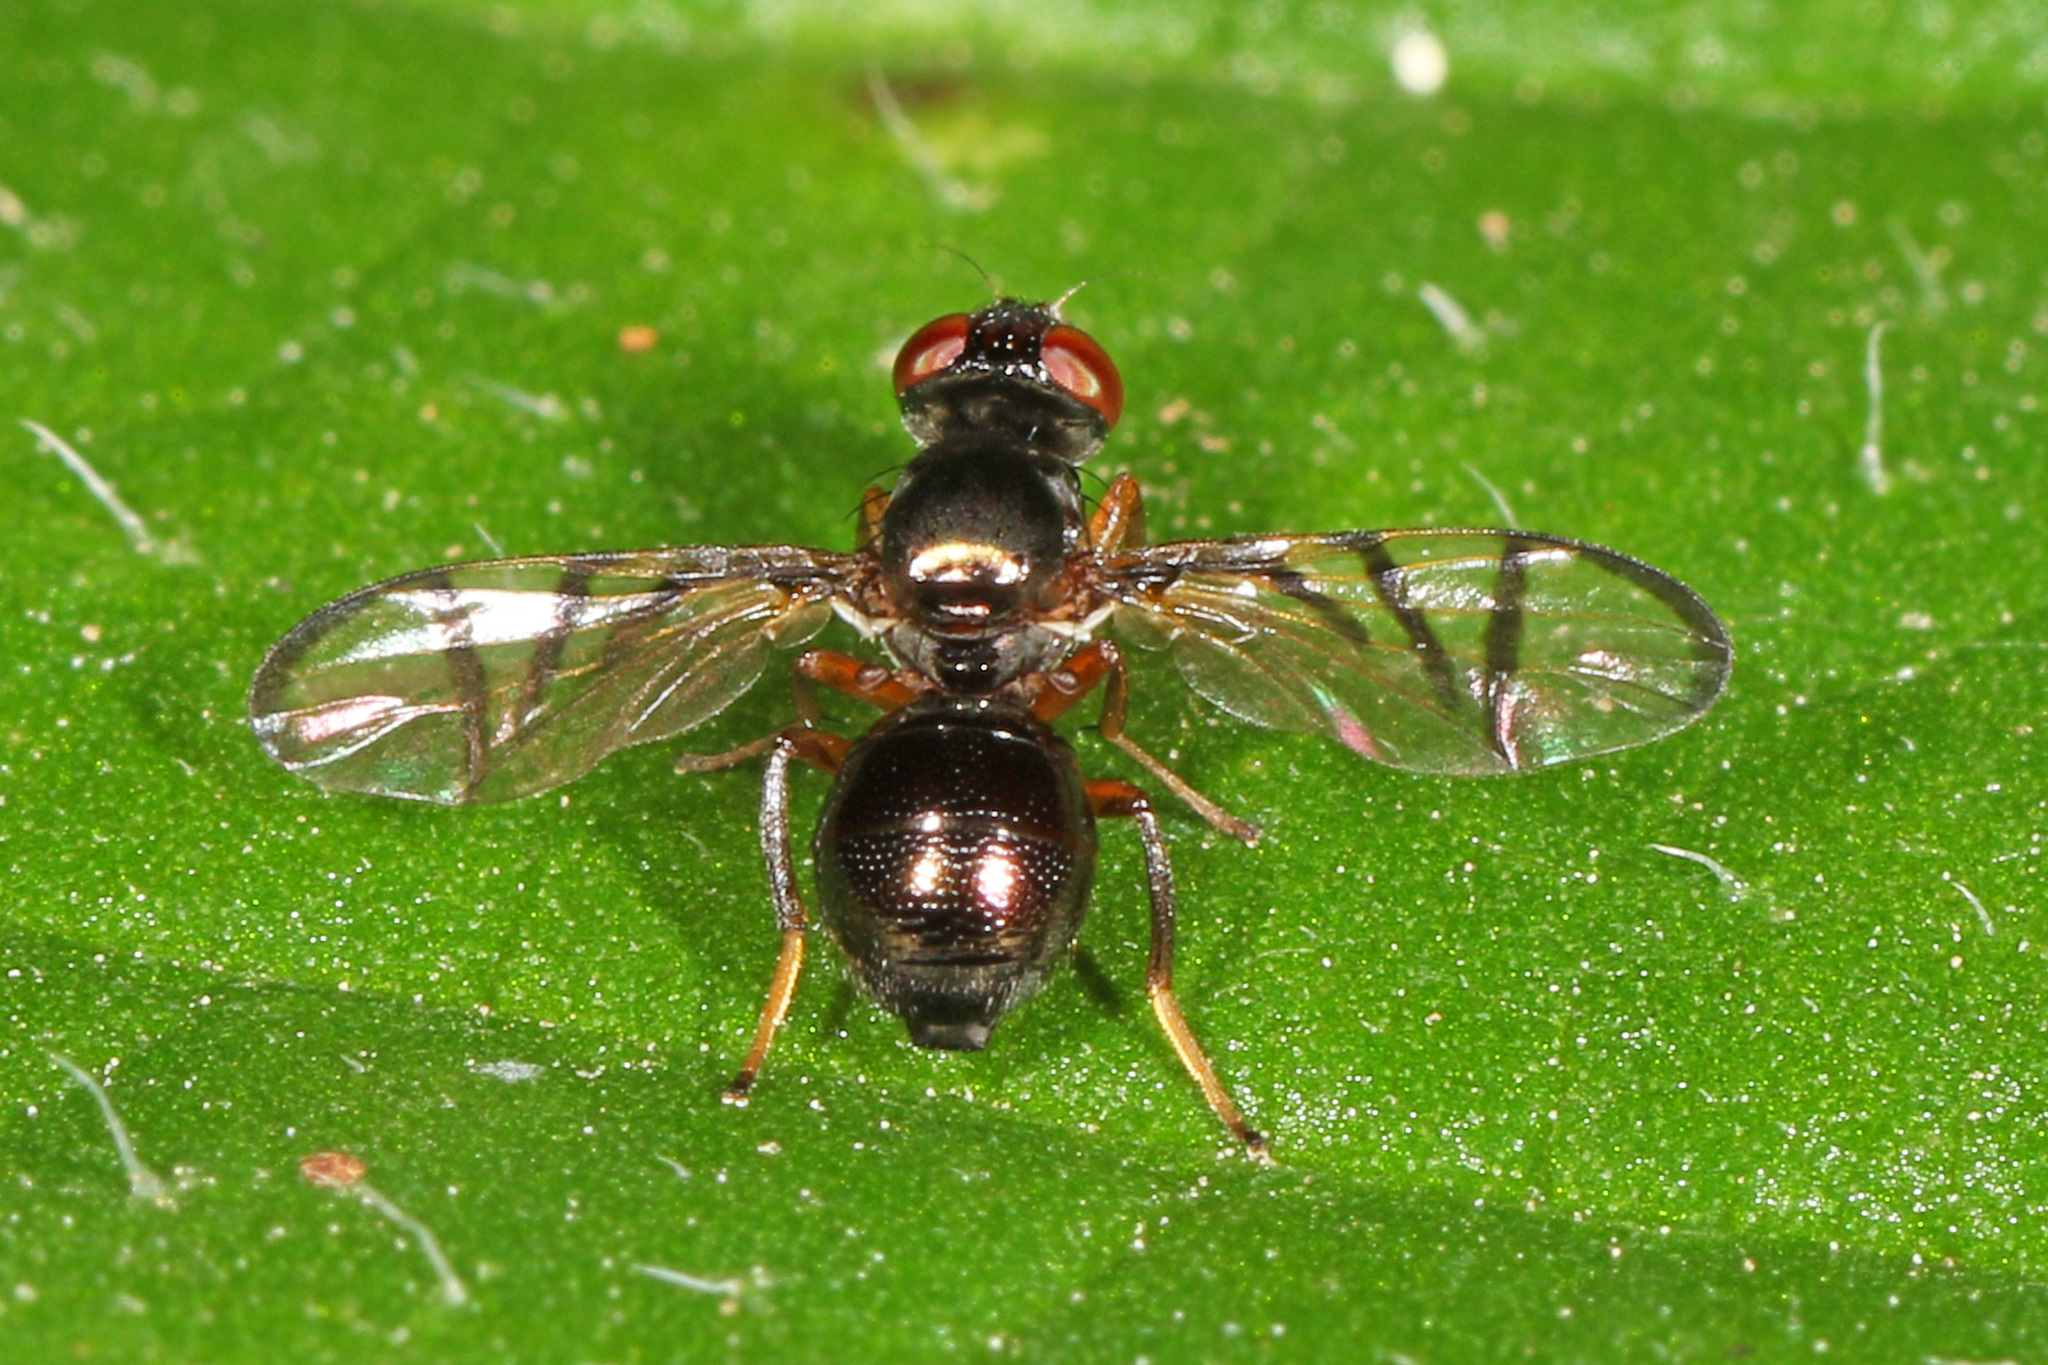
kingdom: Animalia
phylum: Arthropoda
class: Insecta
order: Diptera
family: Platystomatidae
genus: Rivellia
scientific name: Rivellia cognata
